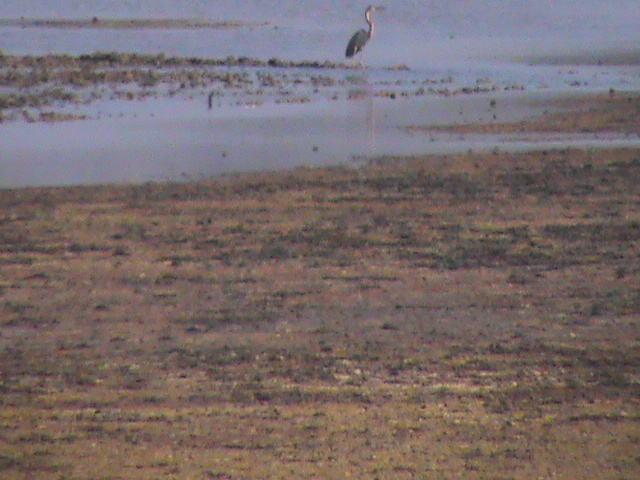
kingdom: Animalia
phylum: Chordata
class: Aves
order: Pelecaniformes
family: Ardeidae
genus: Ardea
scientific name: Ardea purpurea
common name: Purple heron
